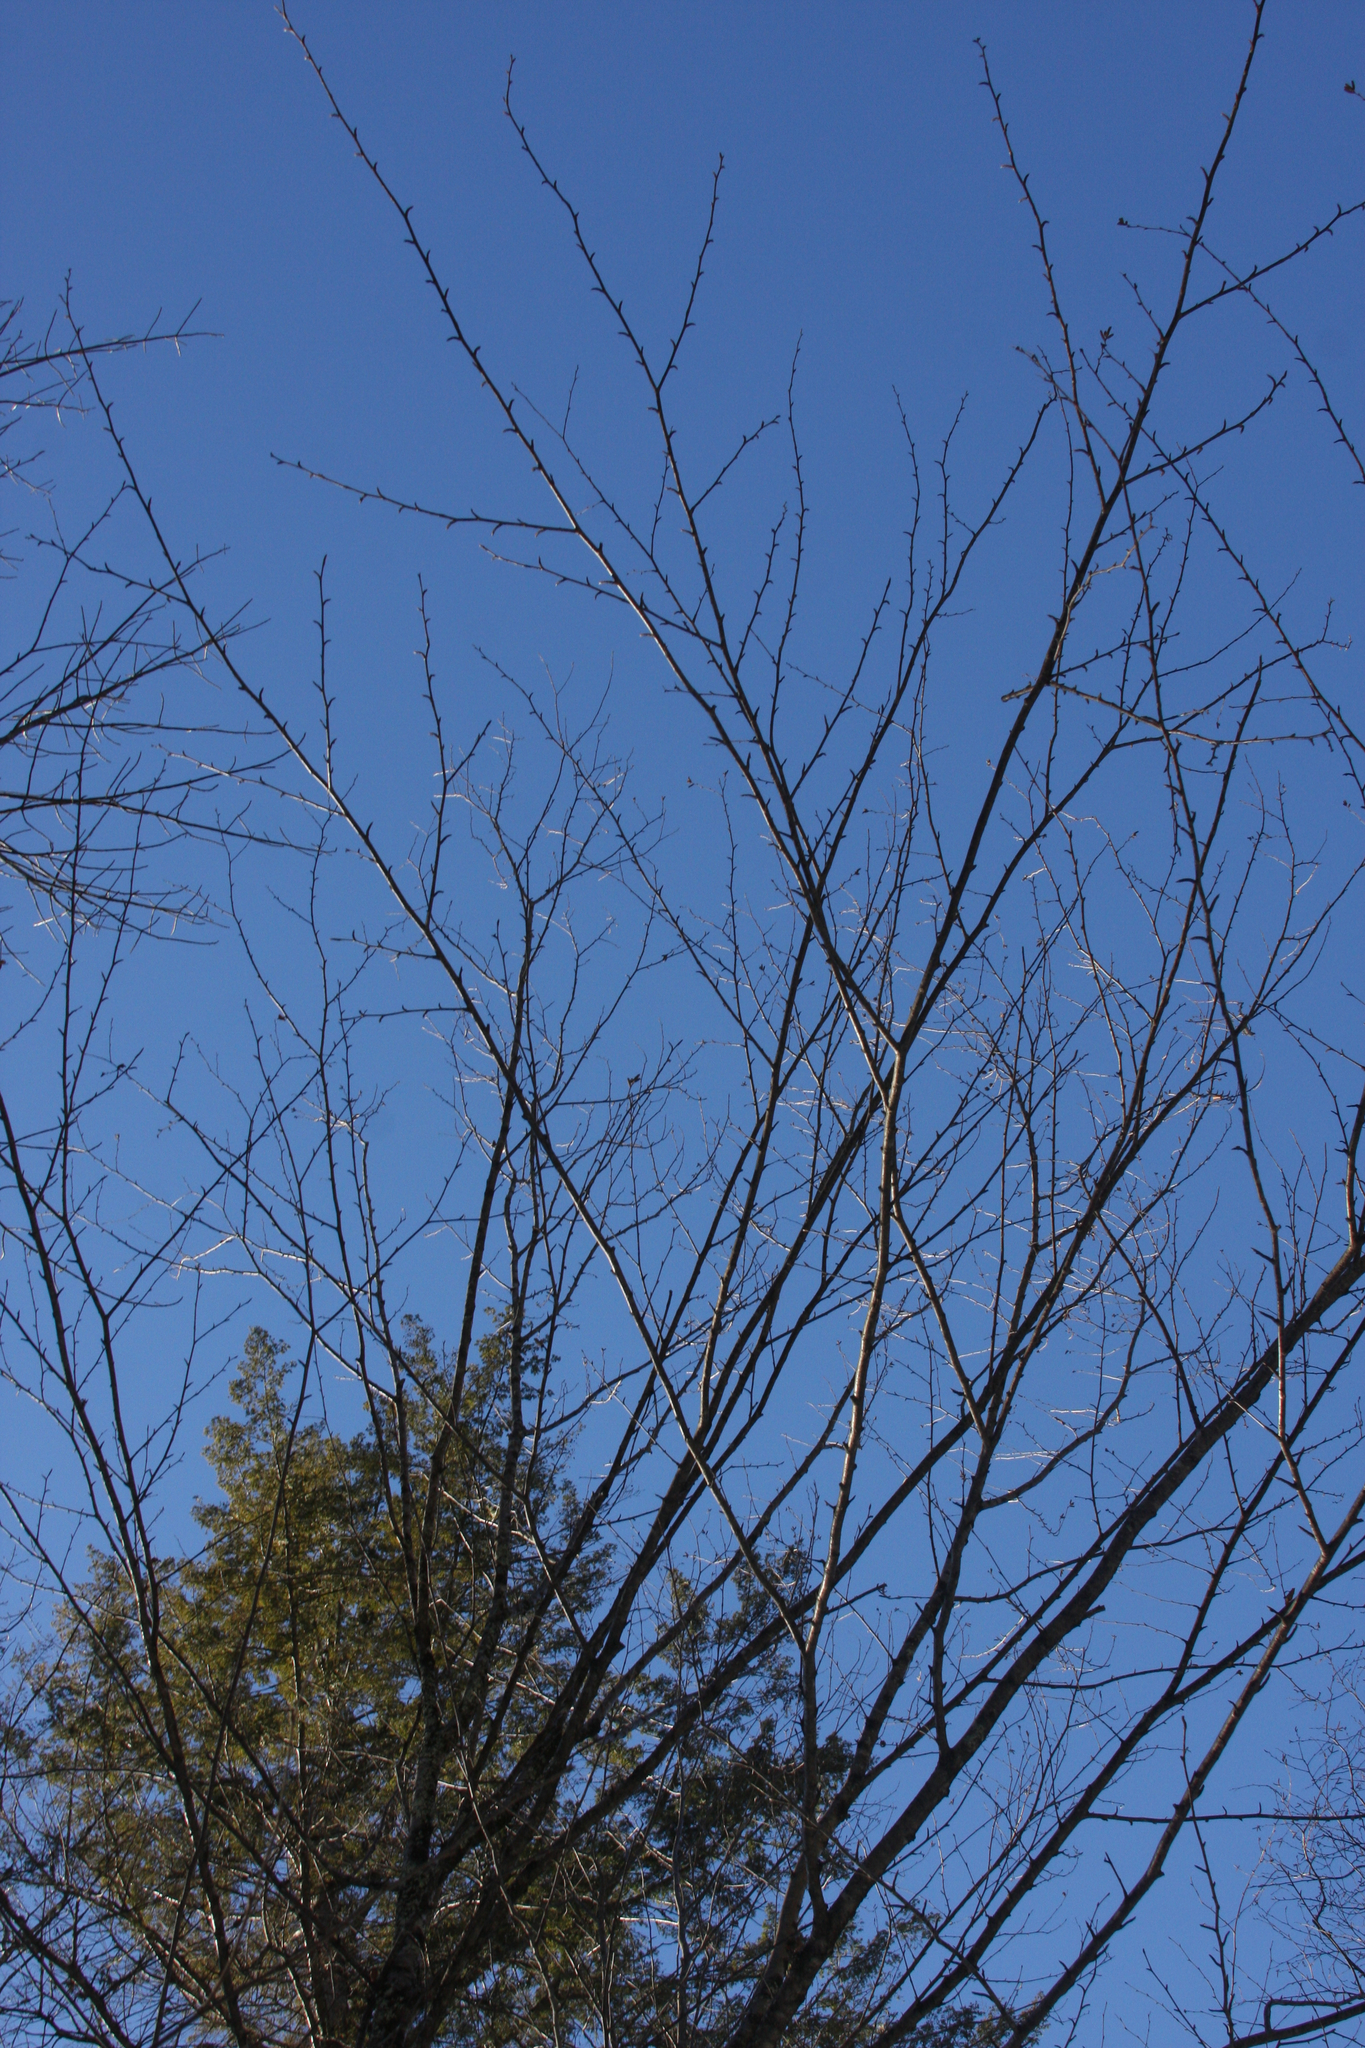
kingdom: Plantae
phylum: Tracheophyta
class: Magnoliopsida
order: Fagales
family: Betulaceae
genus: Betula
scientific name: Betula alleghaniensis
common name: Yellow birch
